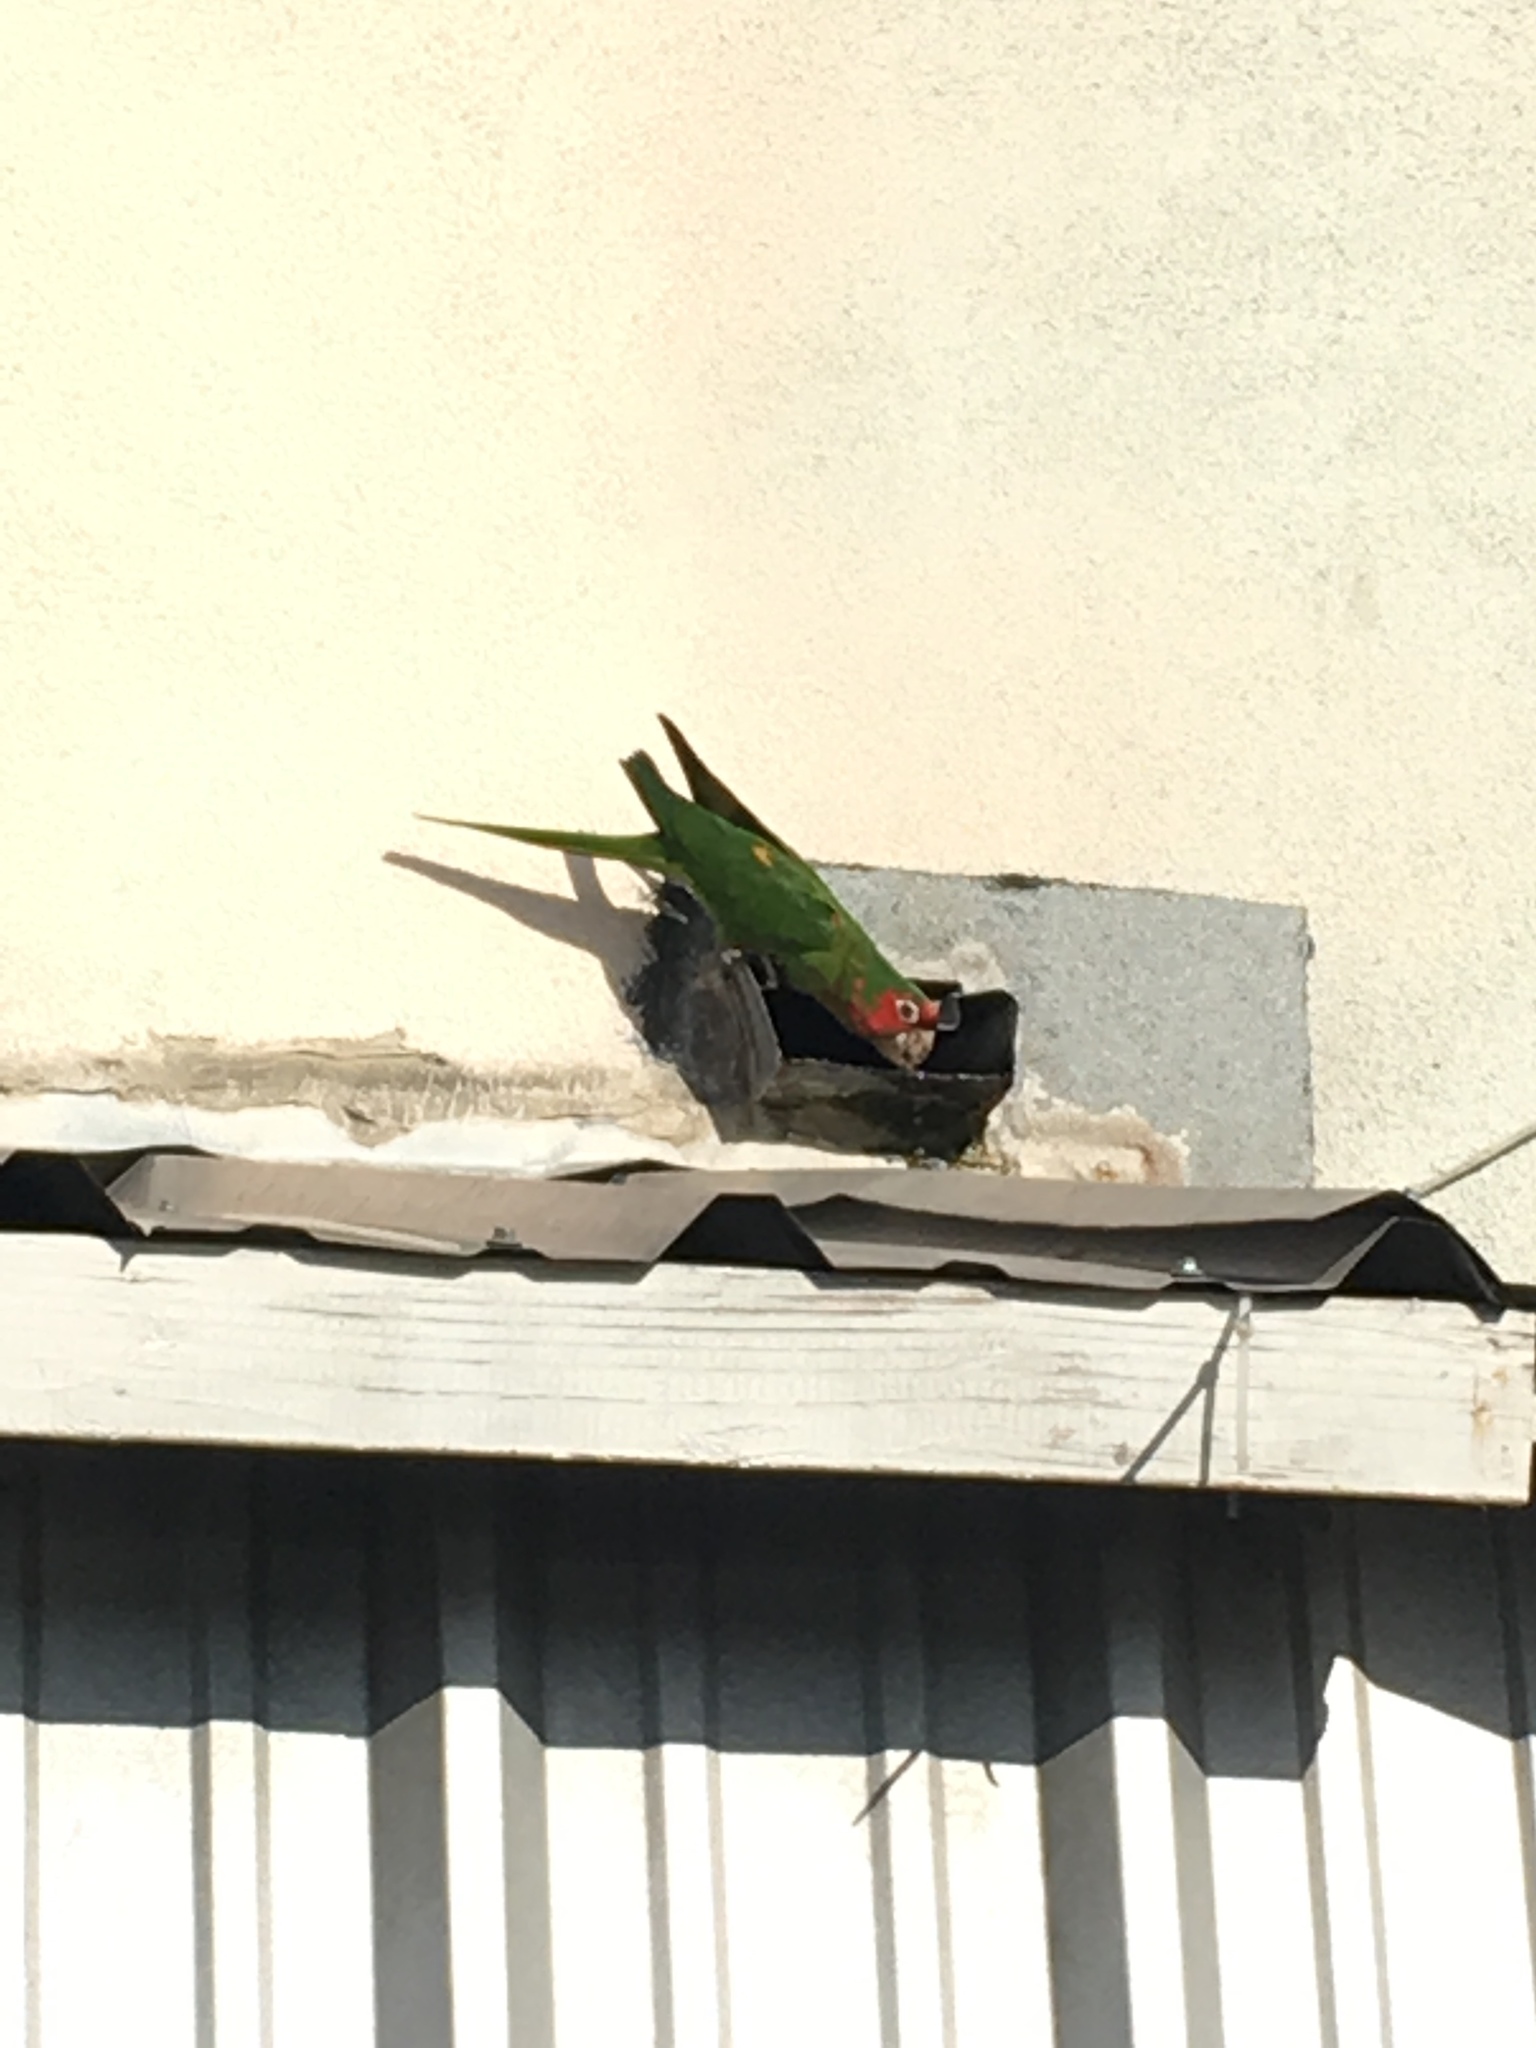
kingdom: Animalia
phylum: Chordata
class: Aves
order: Psittaciformes
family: Psittacidae
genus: Aratinga
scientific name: Aratinga mitrata
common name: Mitred parakeet
